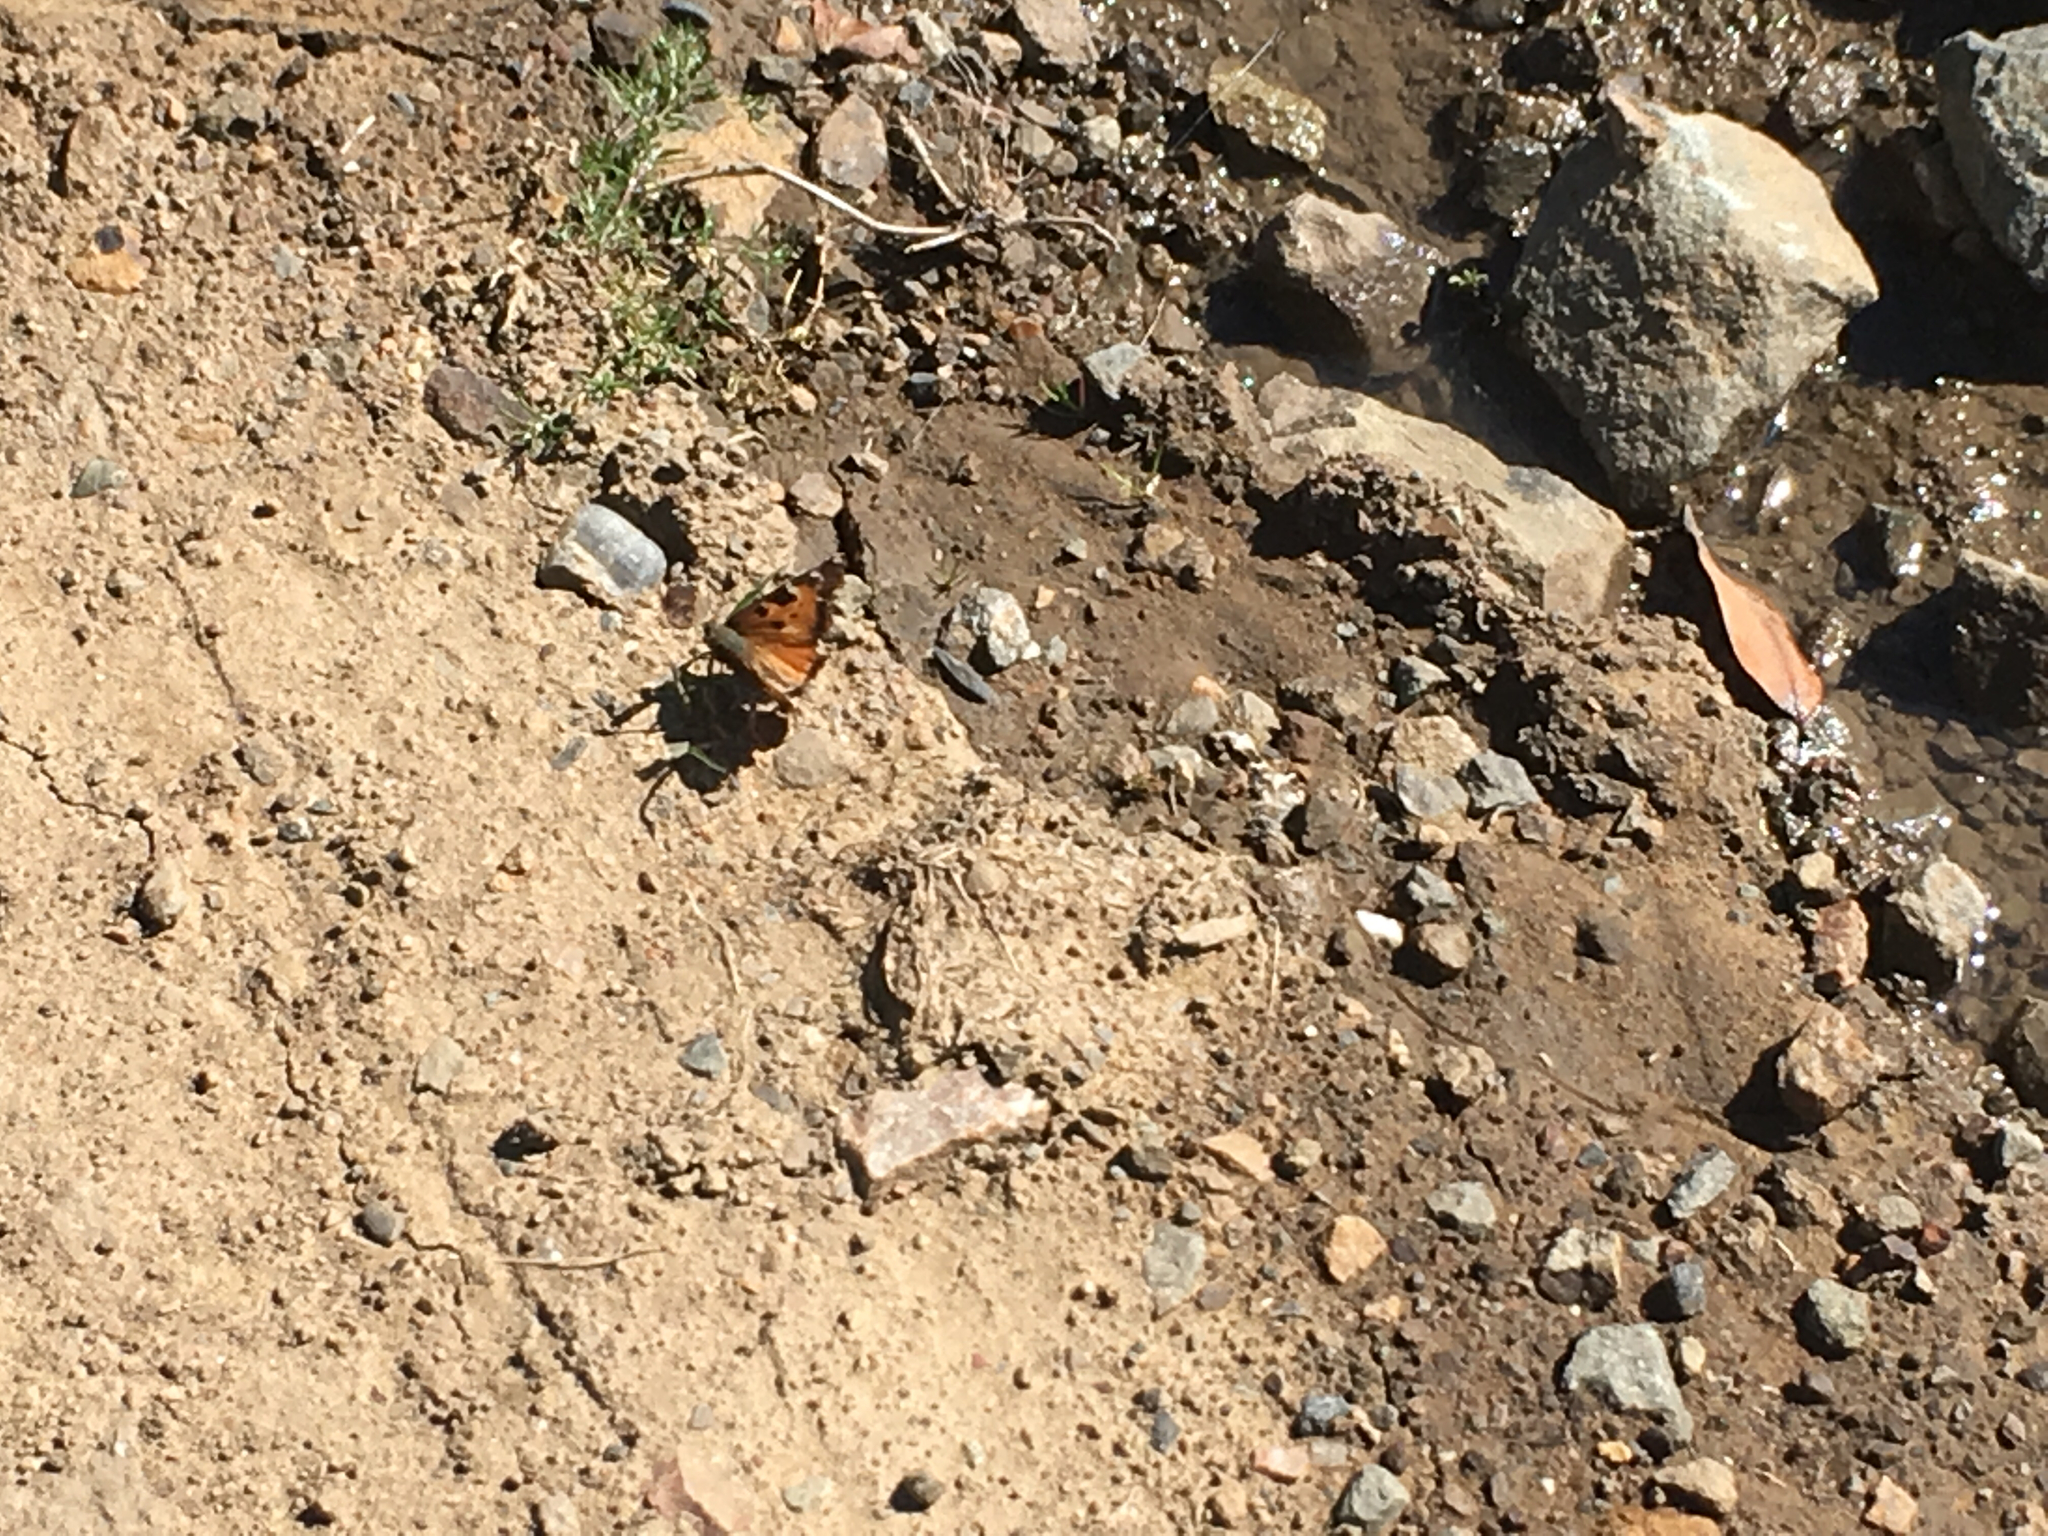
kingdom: Animalia
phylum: Arthropoda
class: Insecta
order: Lepidoptera
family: Nymphalidae
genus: Nymphalis
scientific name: Nymphalis californica
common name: California tortoiseshell
